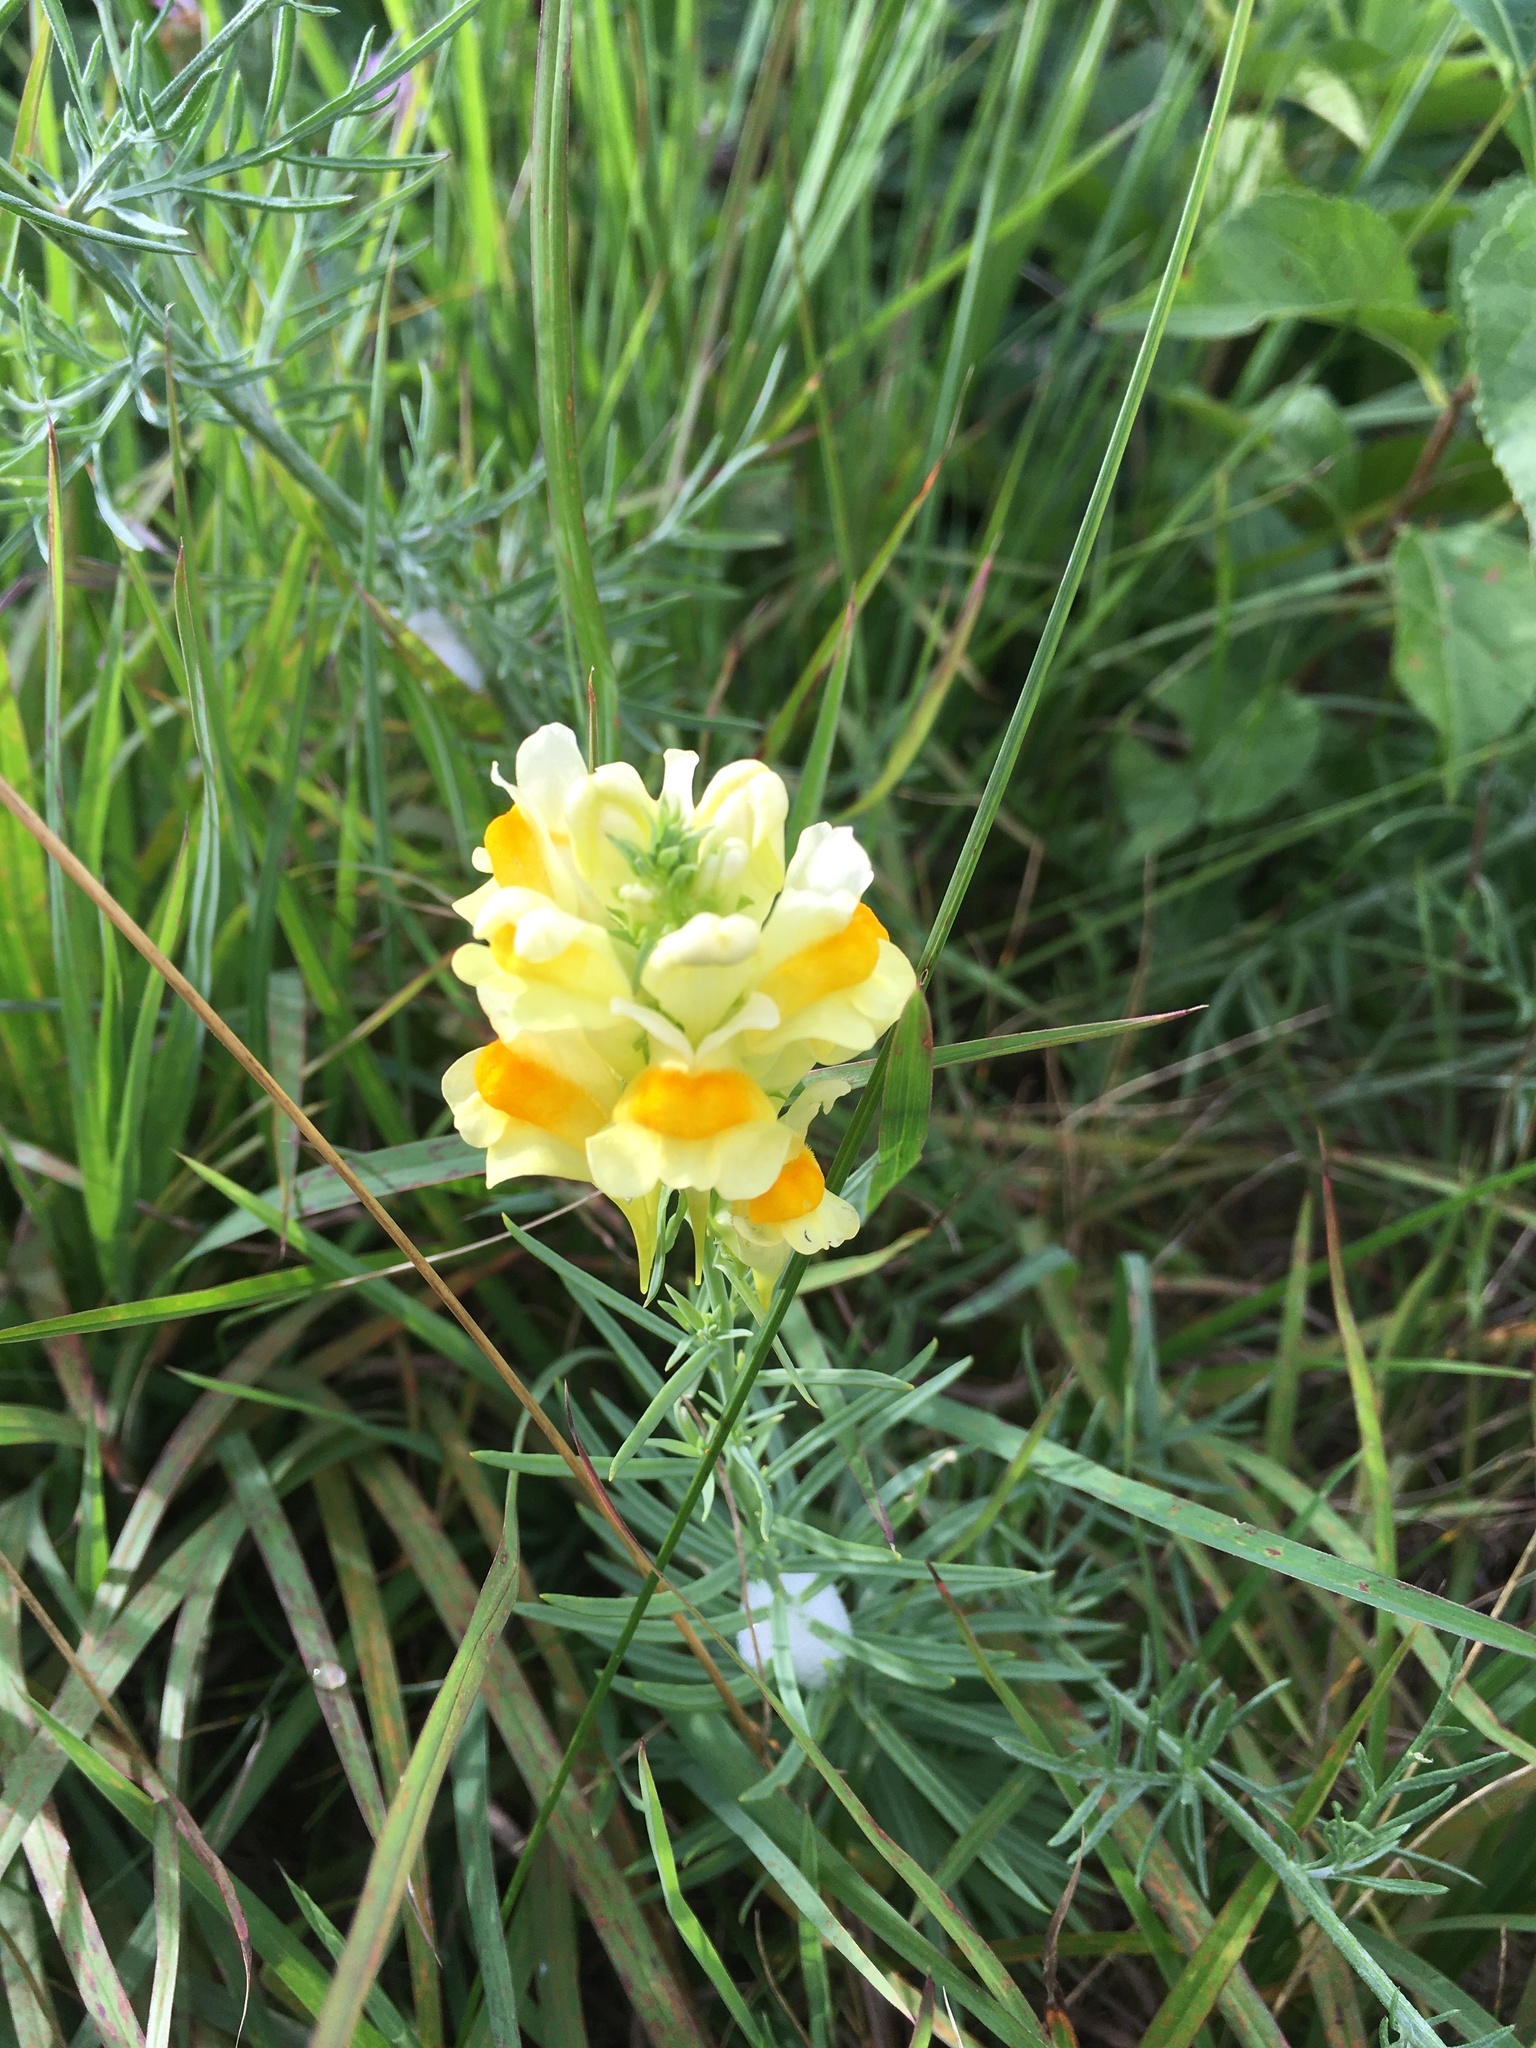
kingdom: Plantae
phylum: Tracheophyta
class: Magnoliopsida
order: Lamiales
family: Plantaginaceae
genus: Linaria
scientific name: Linaria vulgaris
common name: Butter and eggs
